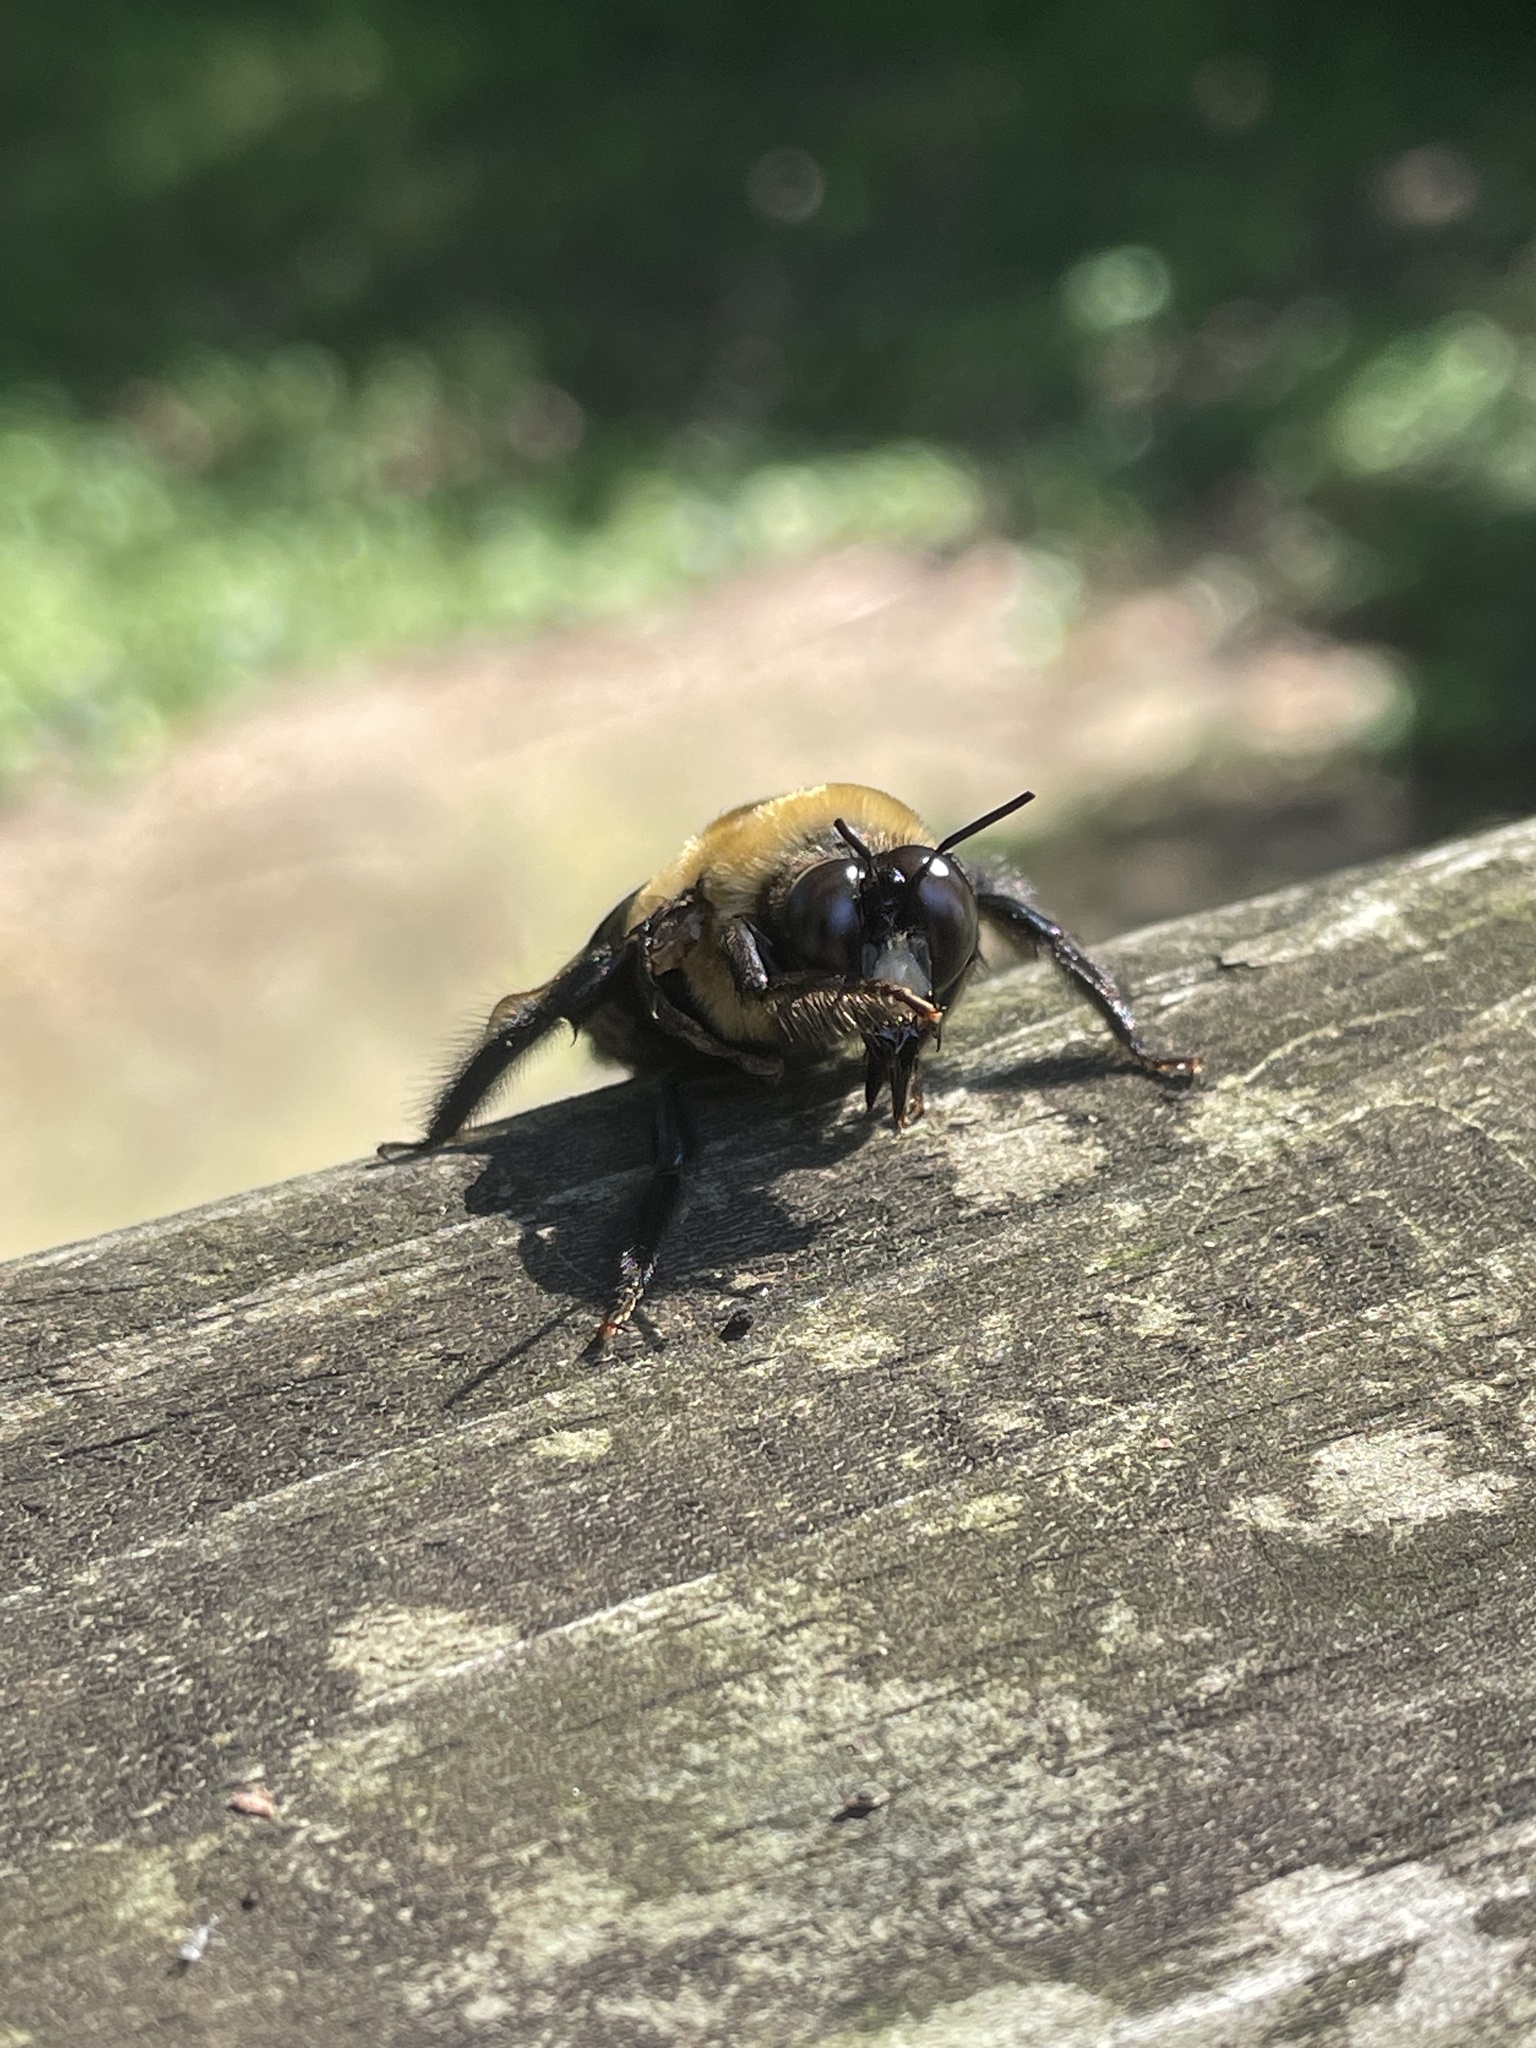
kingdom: Animalia
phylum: Arthropoda
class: Insecta
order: Hymenoptera
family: Apidae
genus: Xylocopa
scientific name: Xylocopa virginica
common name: Carpenter bee
